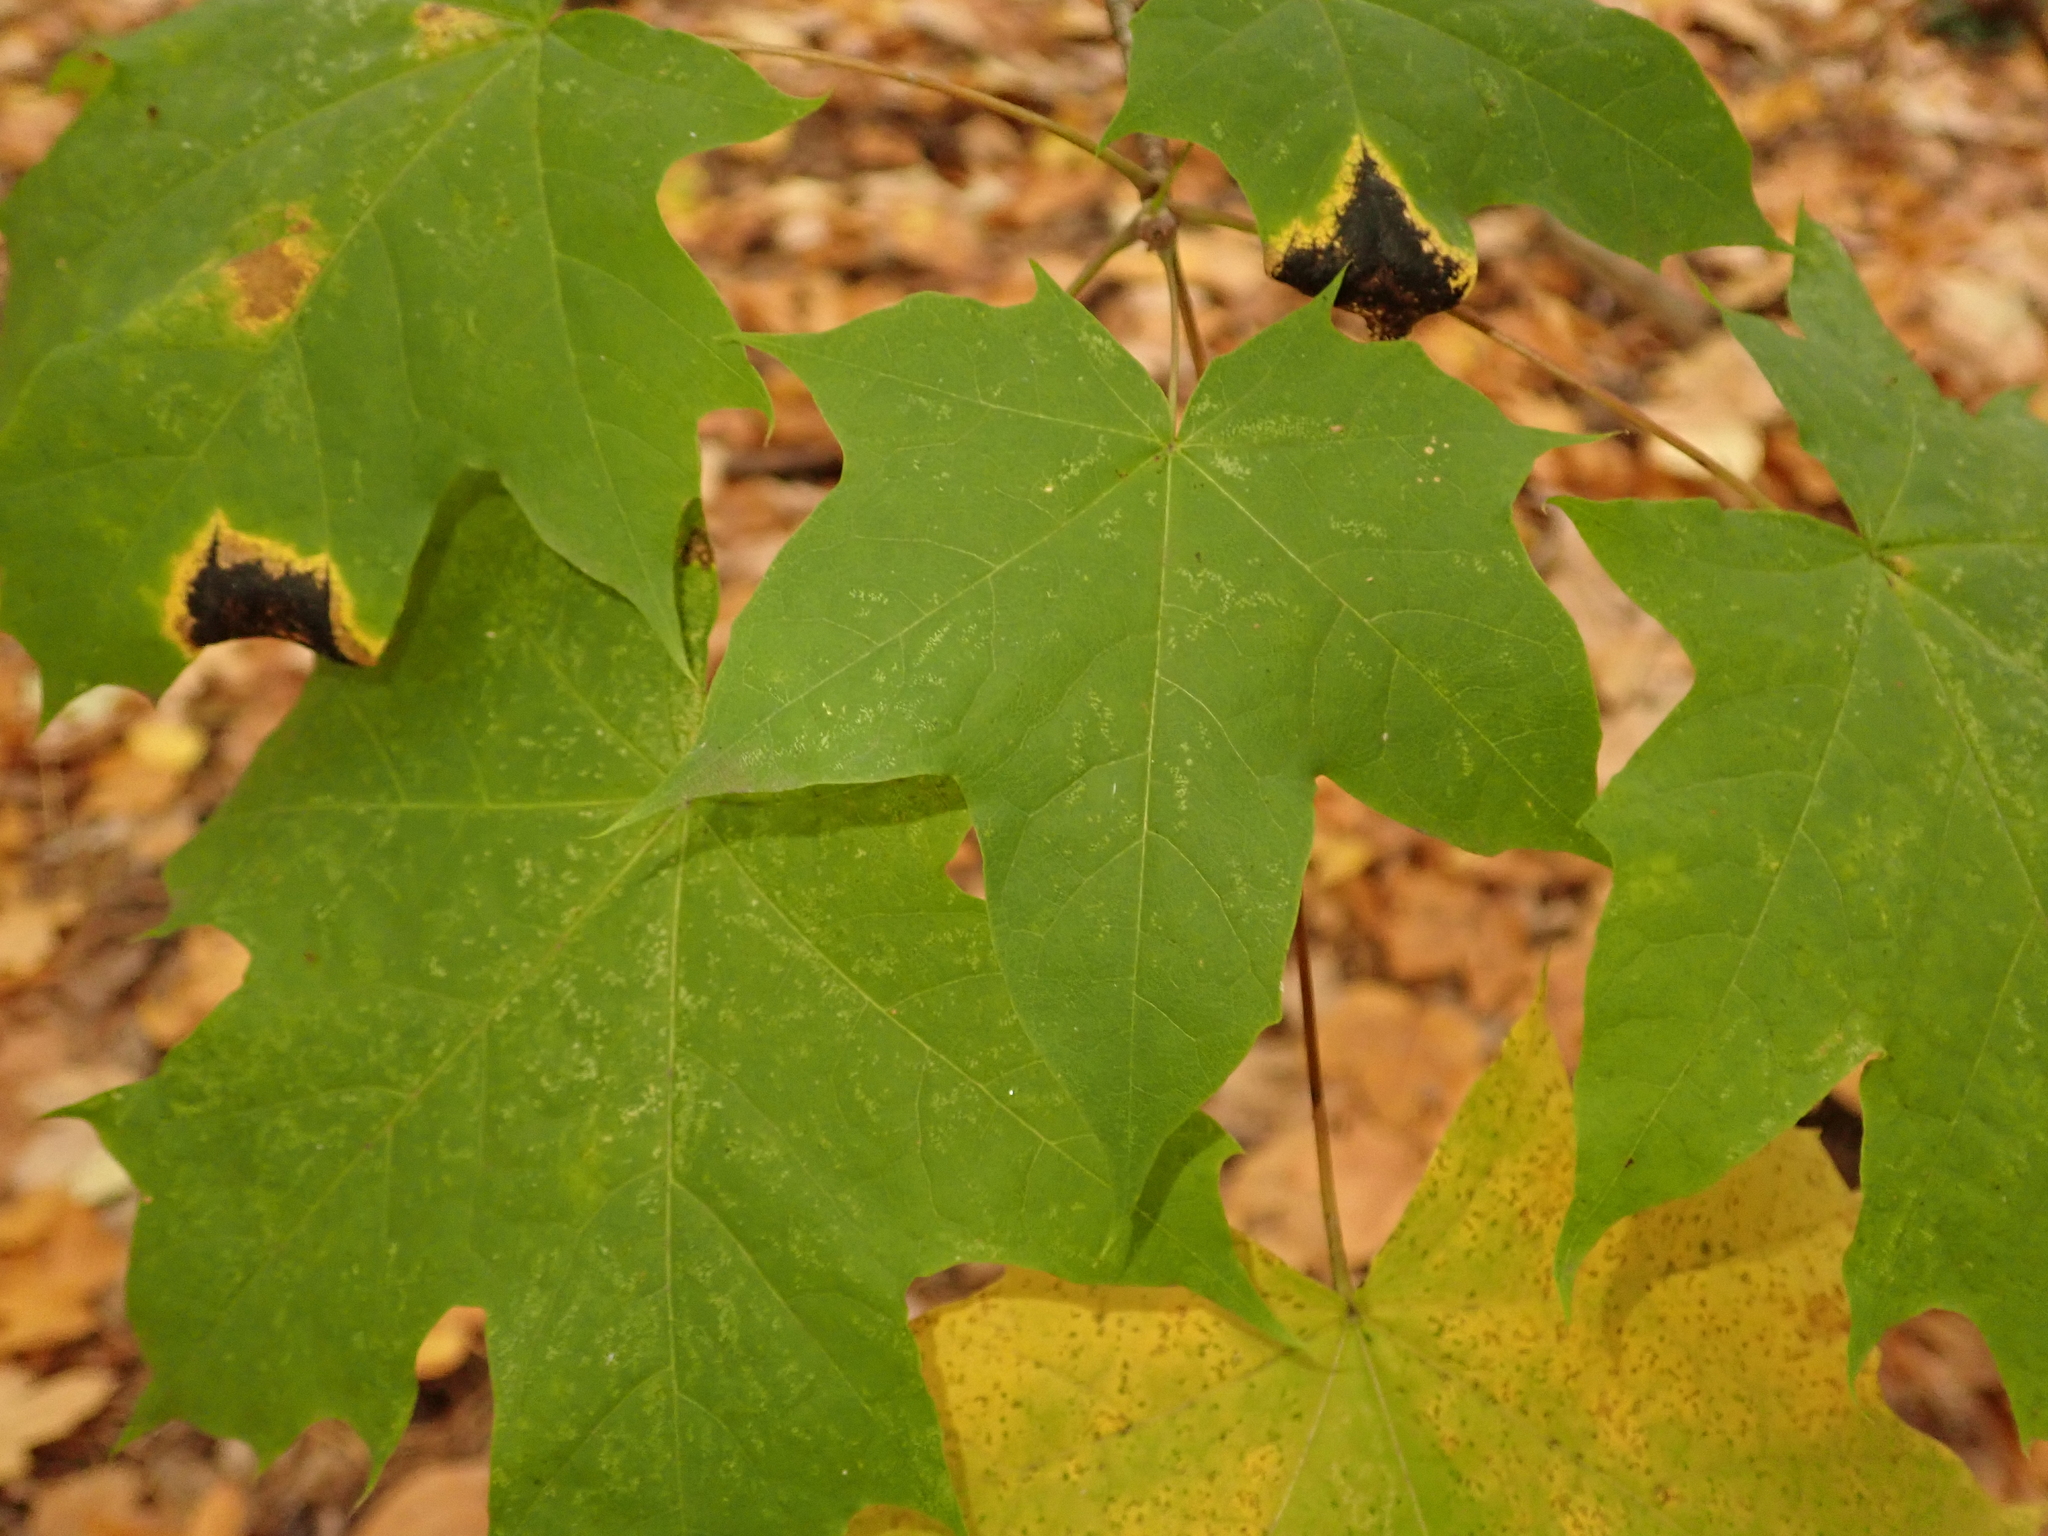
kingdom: Plantae
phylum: Tracheophyta
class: Magnoliopsida
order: Sapindales
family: Sapindaceae
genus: Acer
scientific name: Acer platanoides
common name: Norway maple
